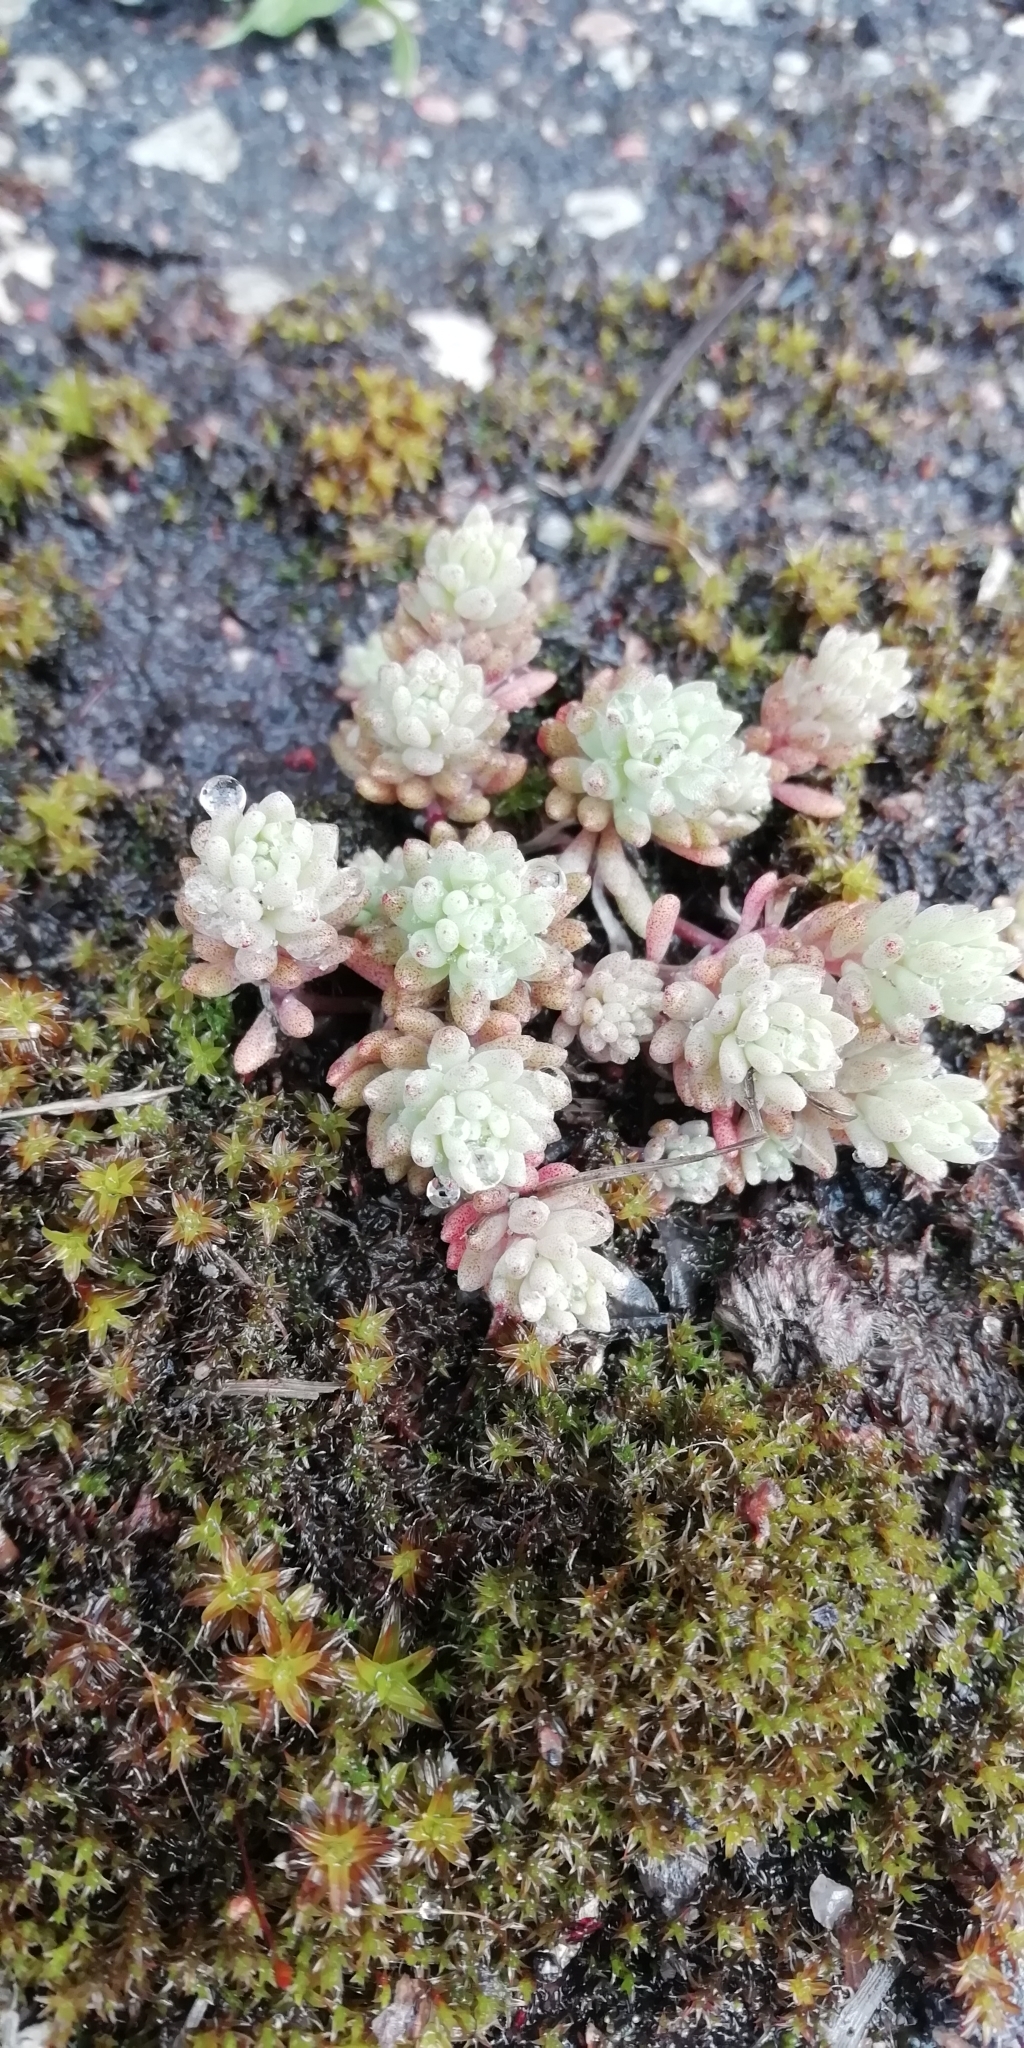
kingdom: Plantae
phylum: Tracheophyta
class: Magnoliopsida
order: Saxifragales
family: Crassulaceae
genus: Sedum
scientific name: Sedum hispanicum
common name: Spanish stonecrop
